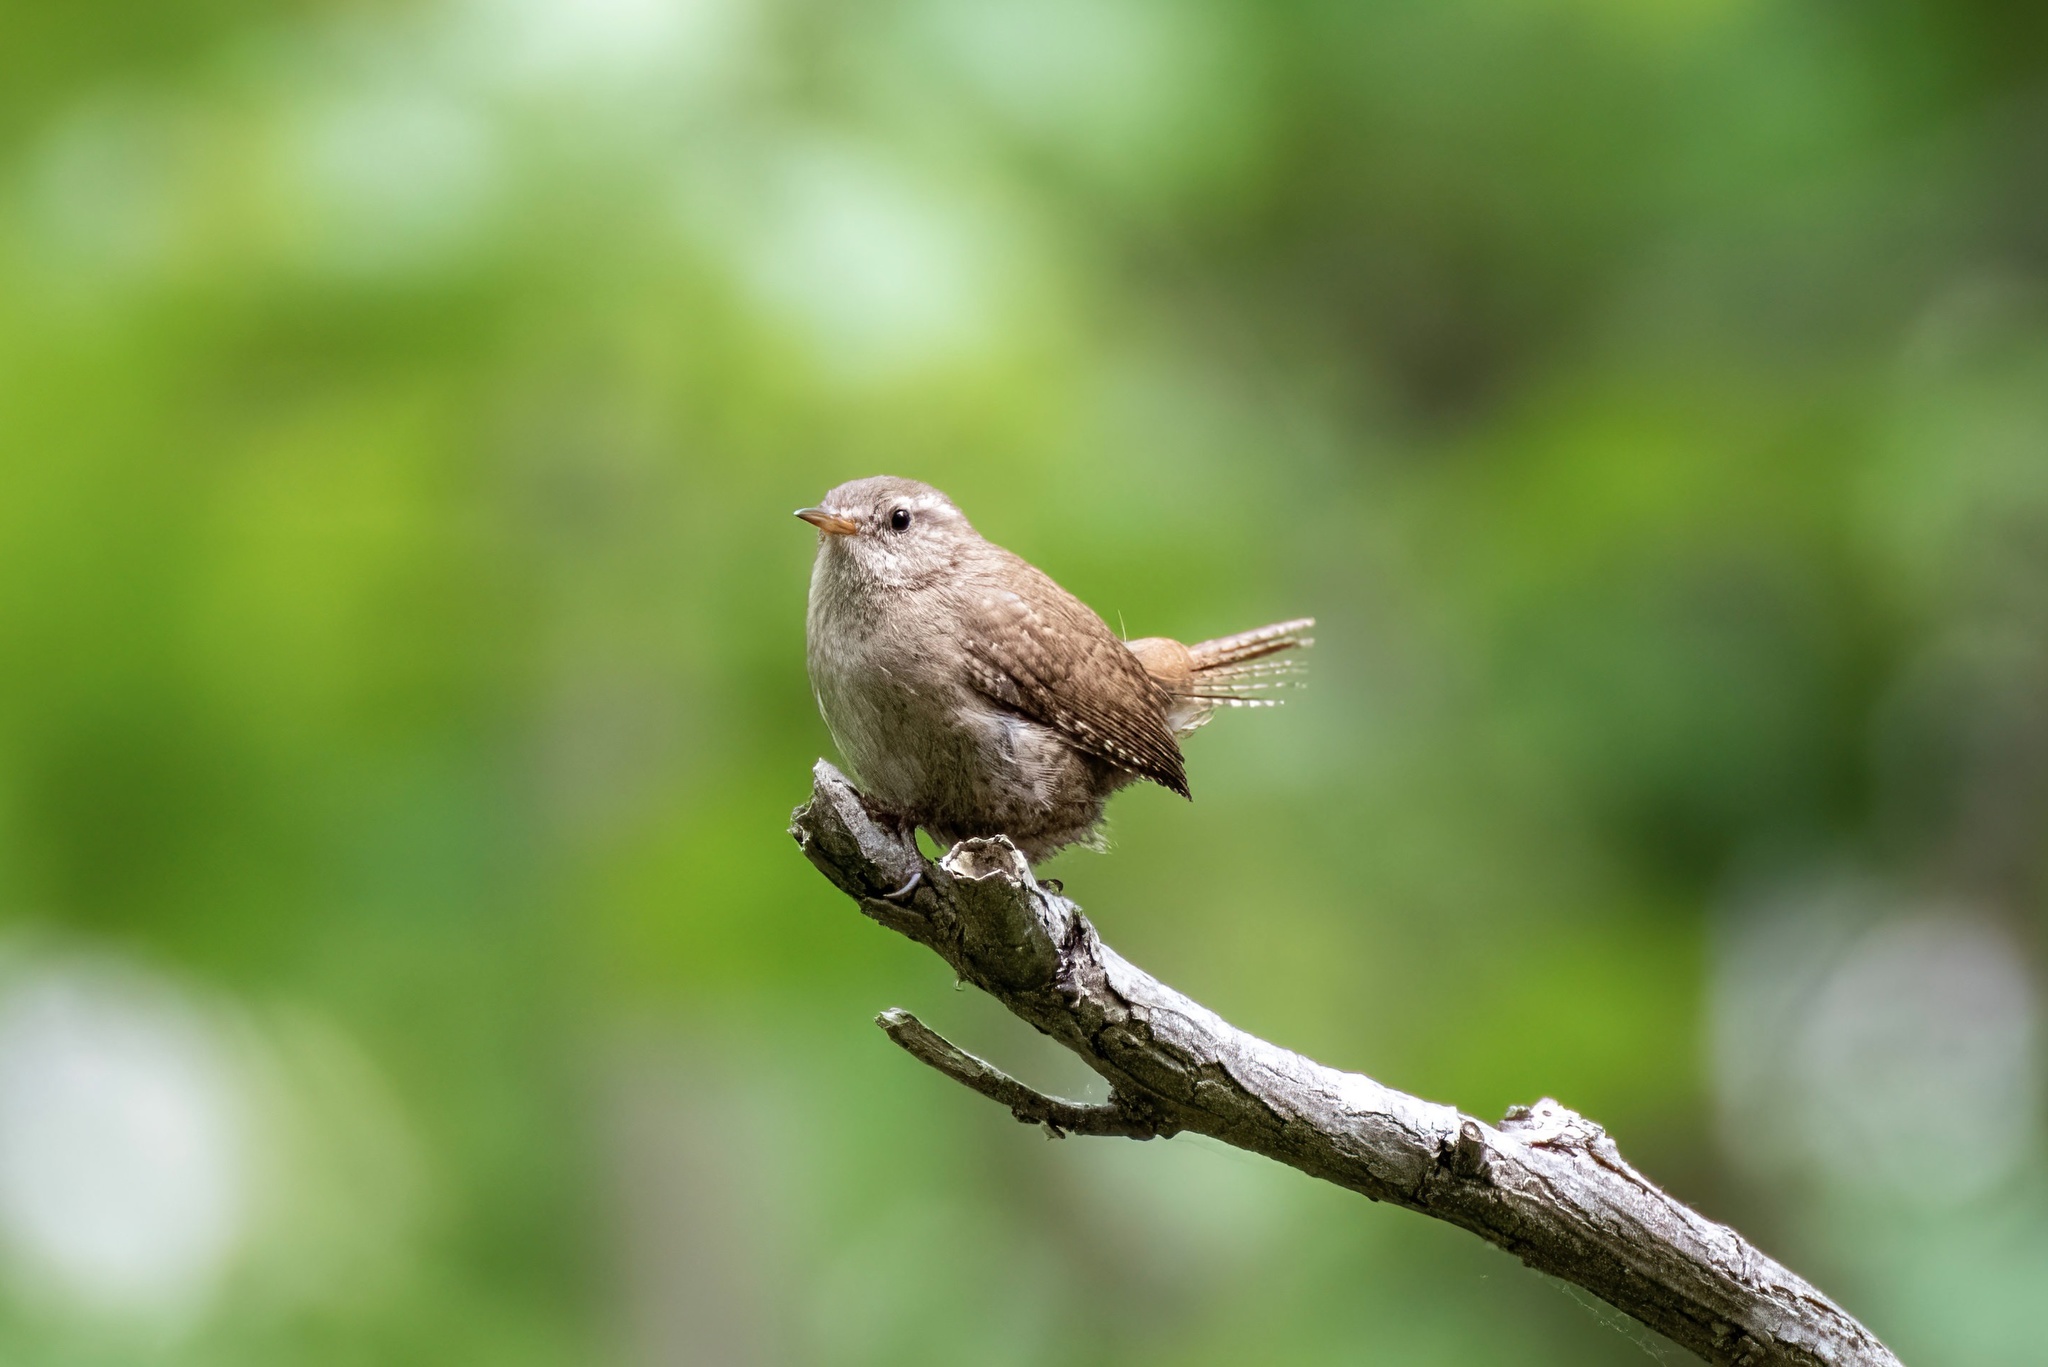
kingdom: Animalia
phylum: Chordata
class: Aves
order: Passeriformes
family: Troglodytidae
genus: Troglodytes
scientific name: Troglodytes troglodytes
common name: Eurasian wren
